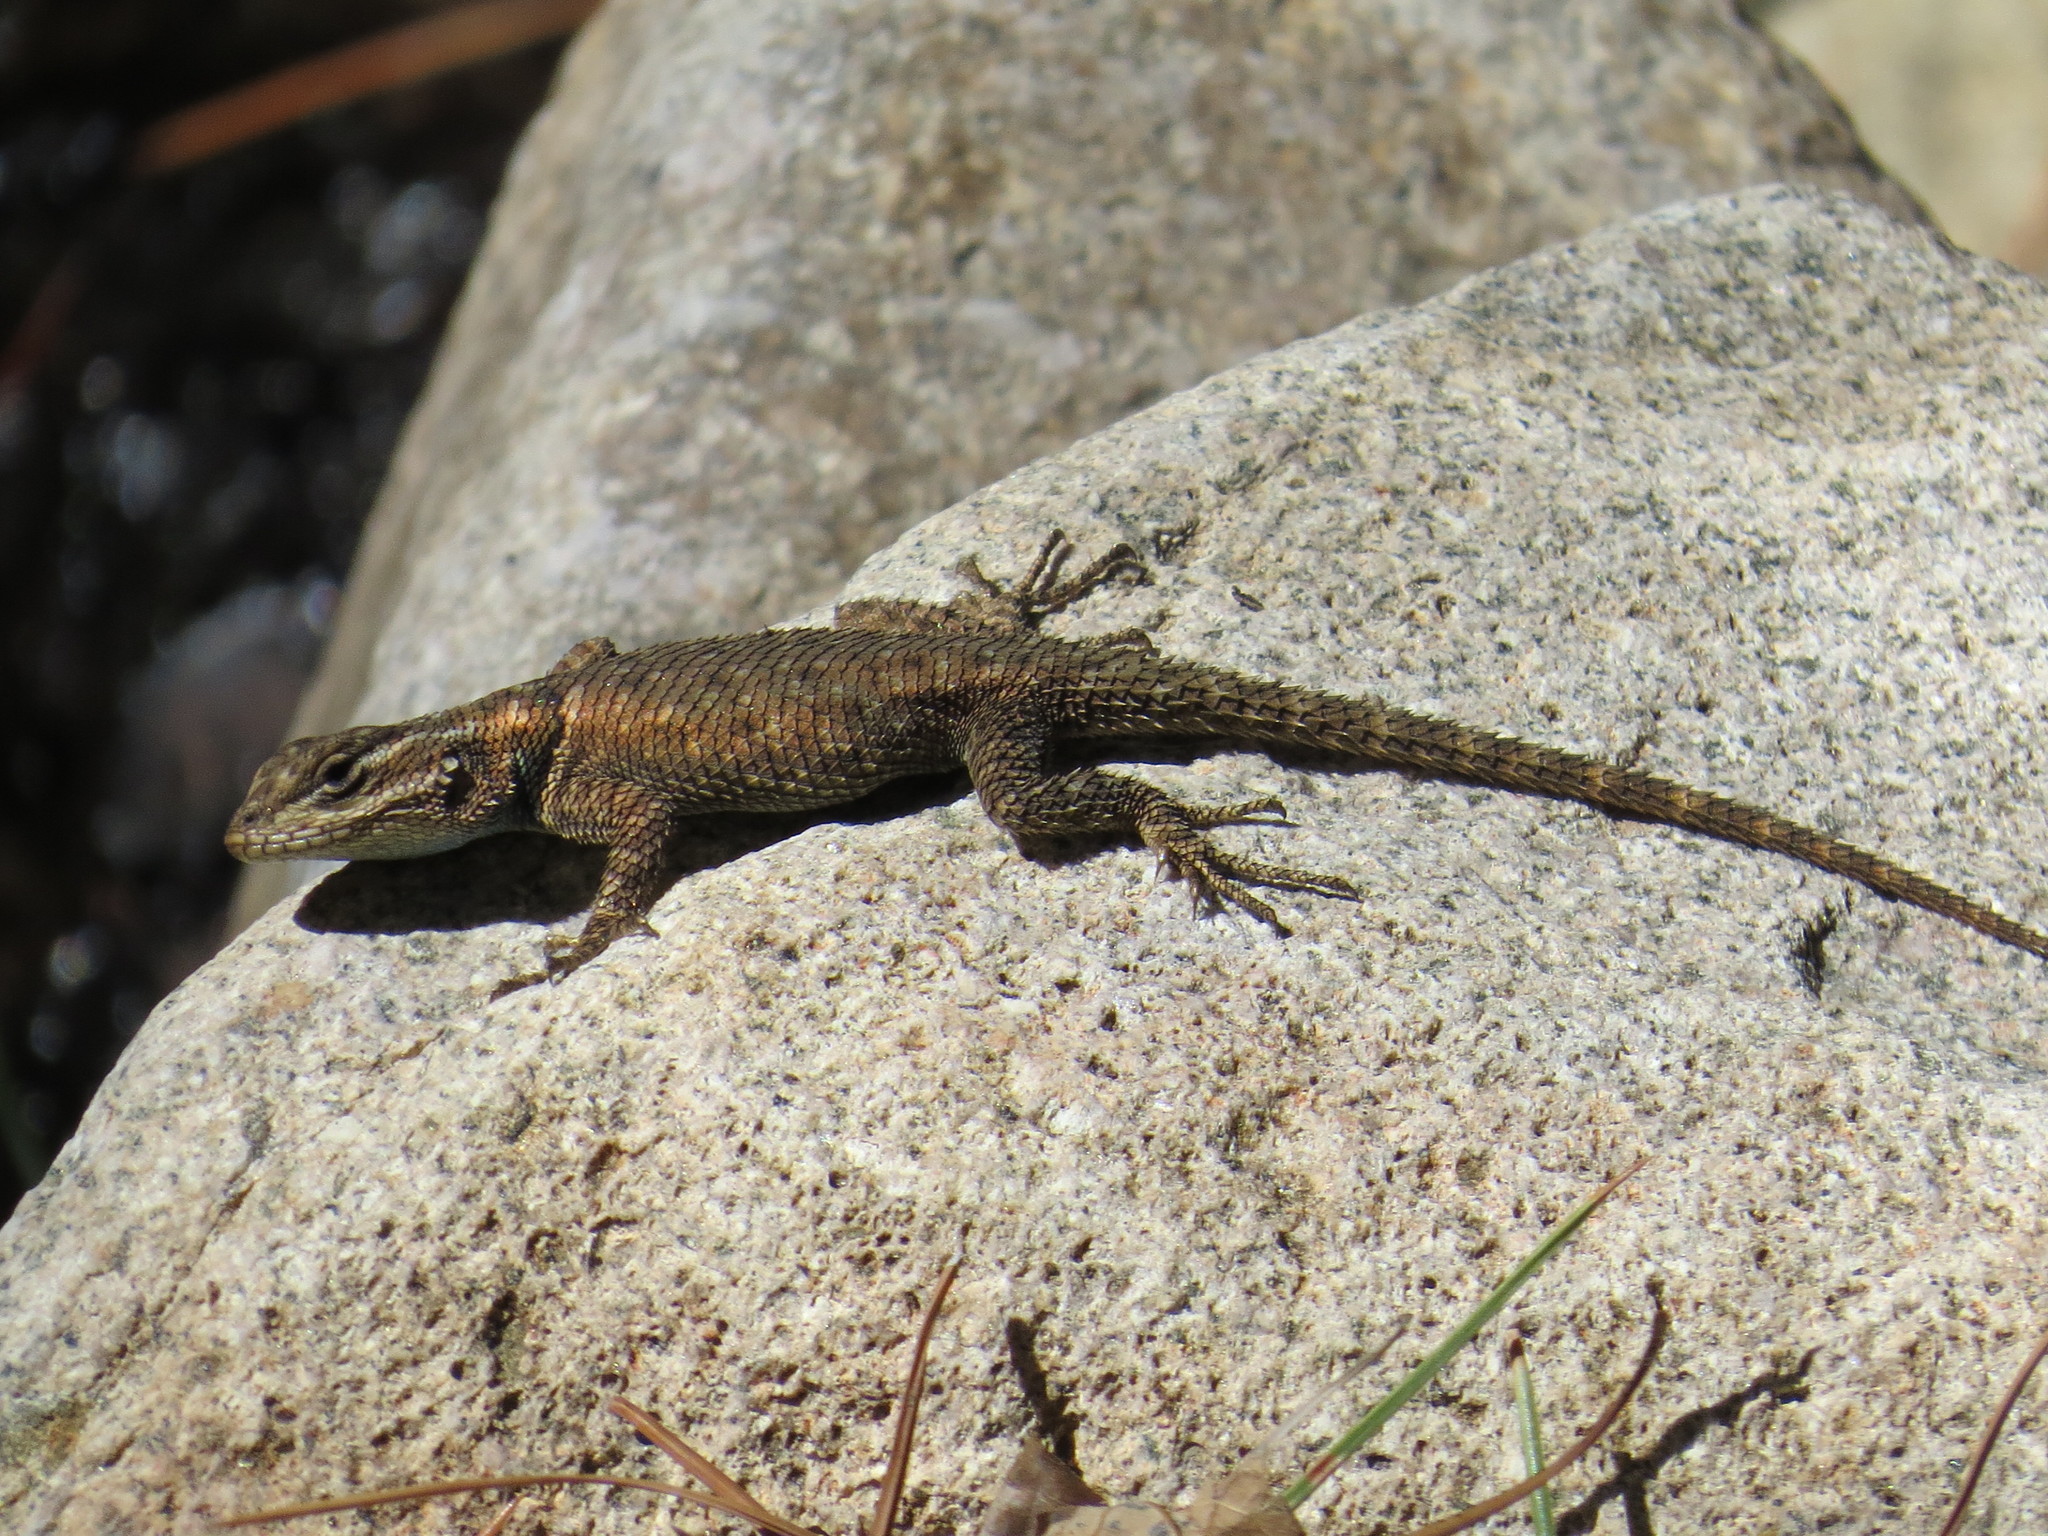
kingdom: Animalia
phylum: Chordata
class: Squamata
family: Phrynosomatidae
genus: Sceloporus
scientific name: Sceloporus jarrovii
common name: Yarrow's spiny lizard
